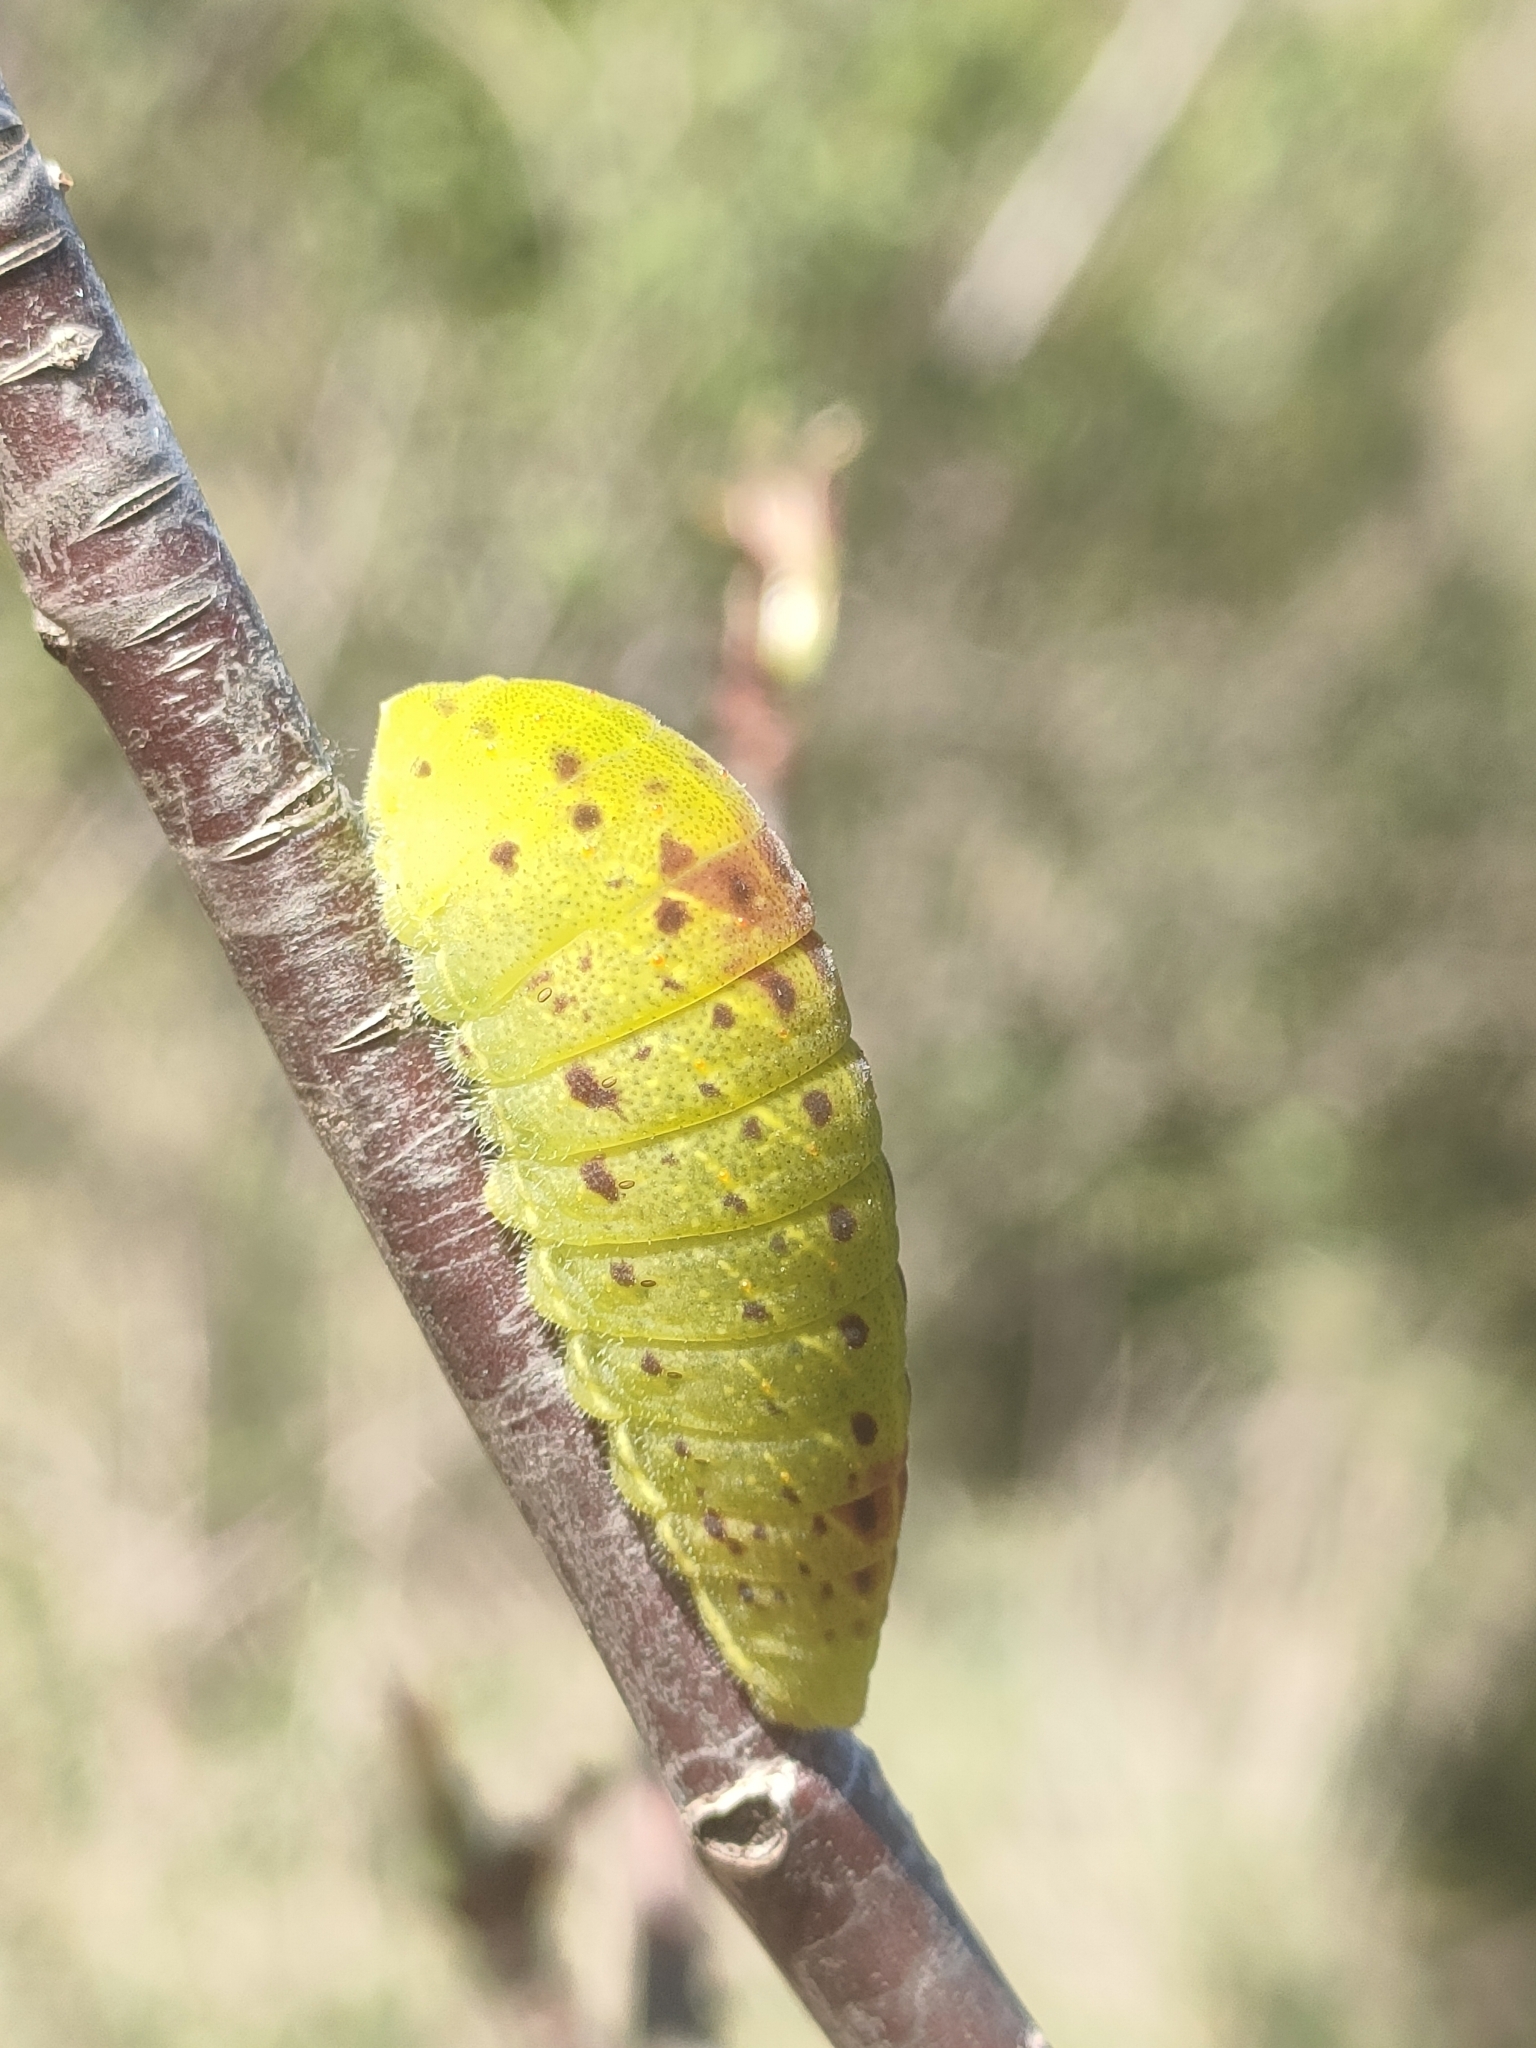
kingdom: Animalia
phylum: Arthropoda
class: Insecta
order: Lepidoptera
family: Papilionidae
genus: Iphiclides
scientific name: Iphiclides feisthamelii
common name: Iberian scarce swallowtail
